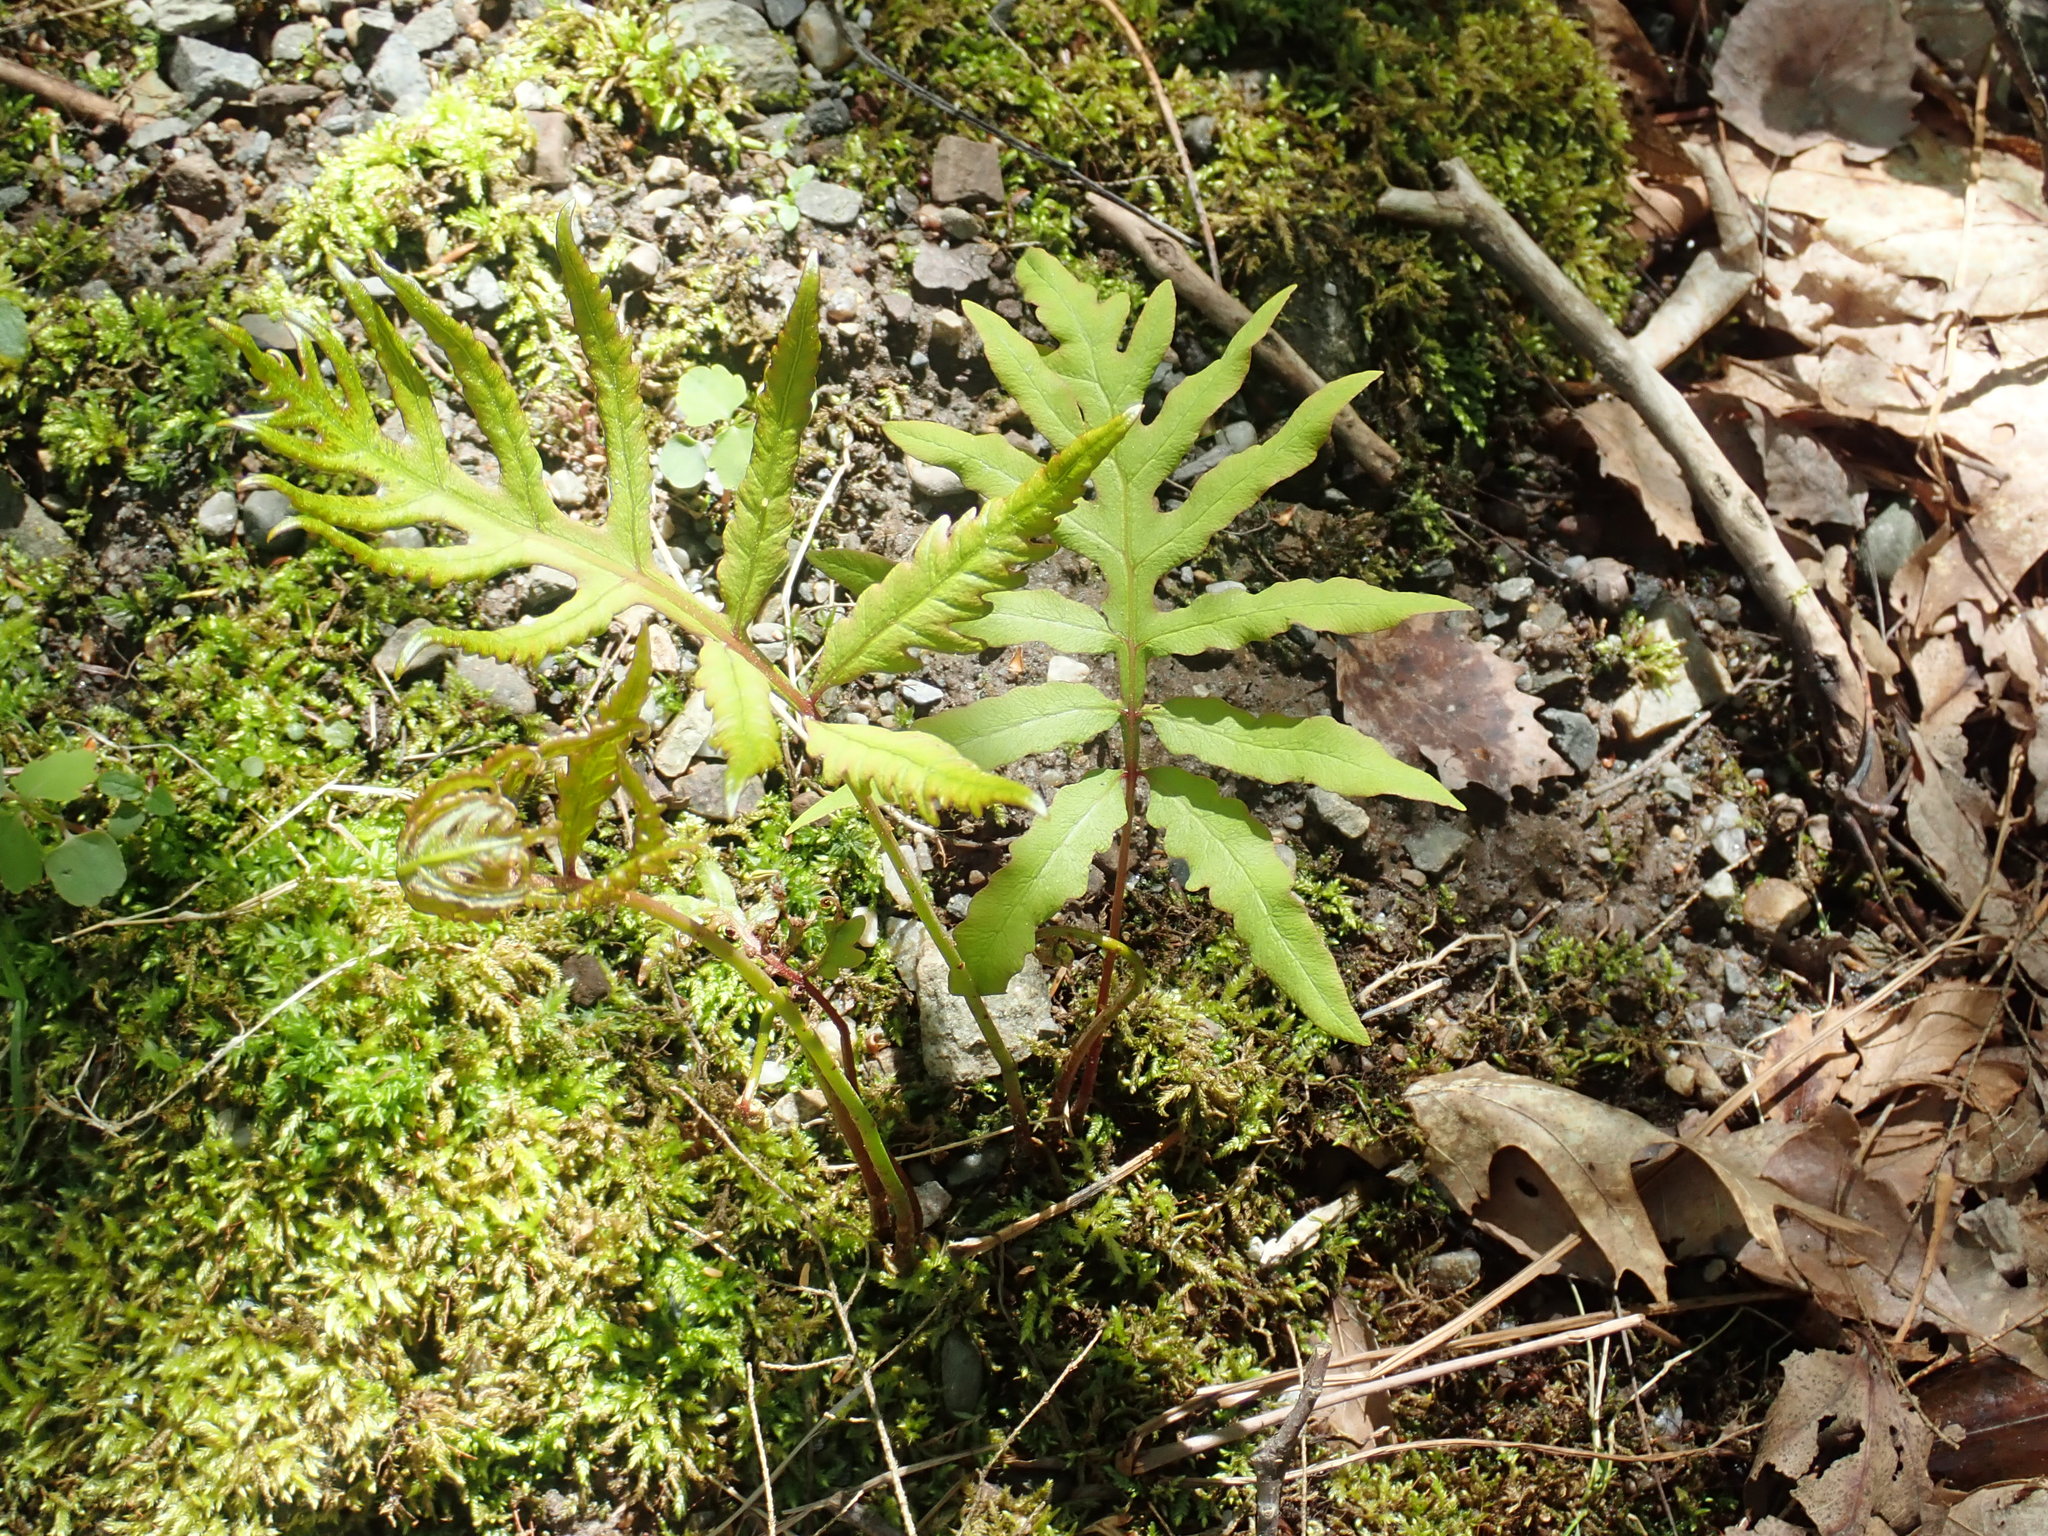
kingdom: Plantae
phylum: Tracheophyta
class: Polypodiopsida
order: Polypodiales
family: Onocleaceae
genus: Onoclea
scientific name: Onoclea sensibilis
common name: Sensitive fern
